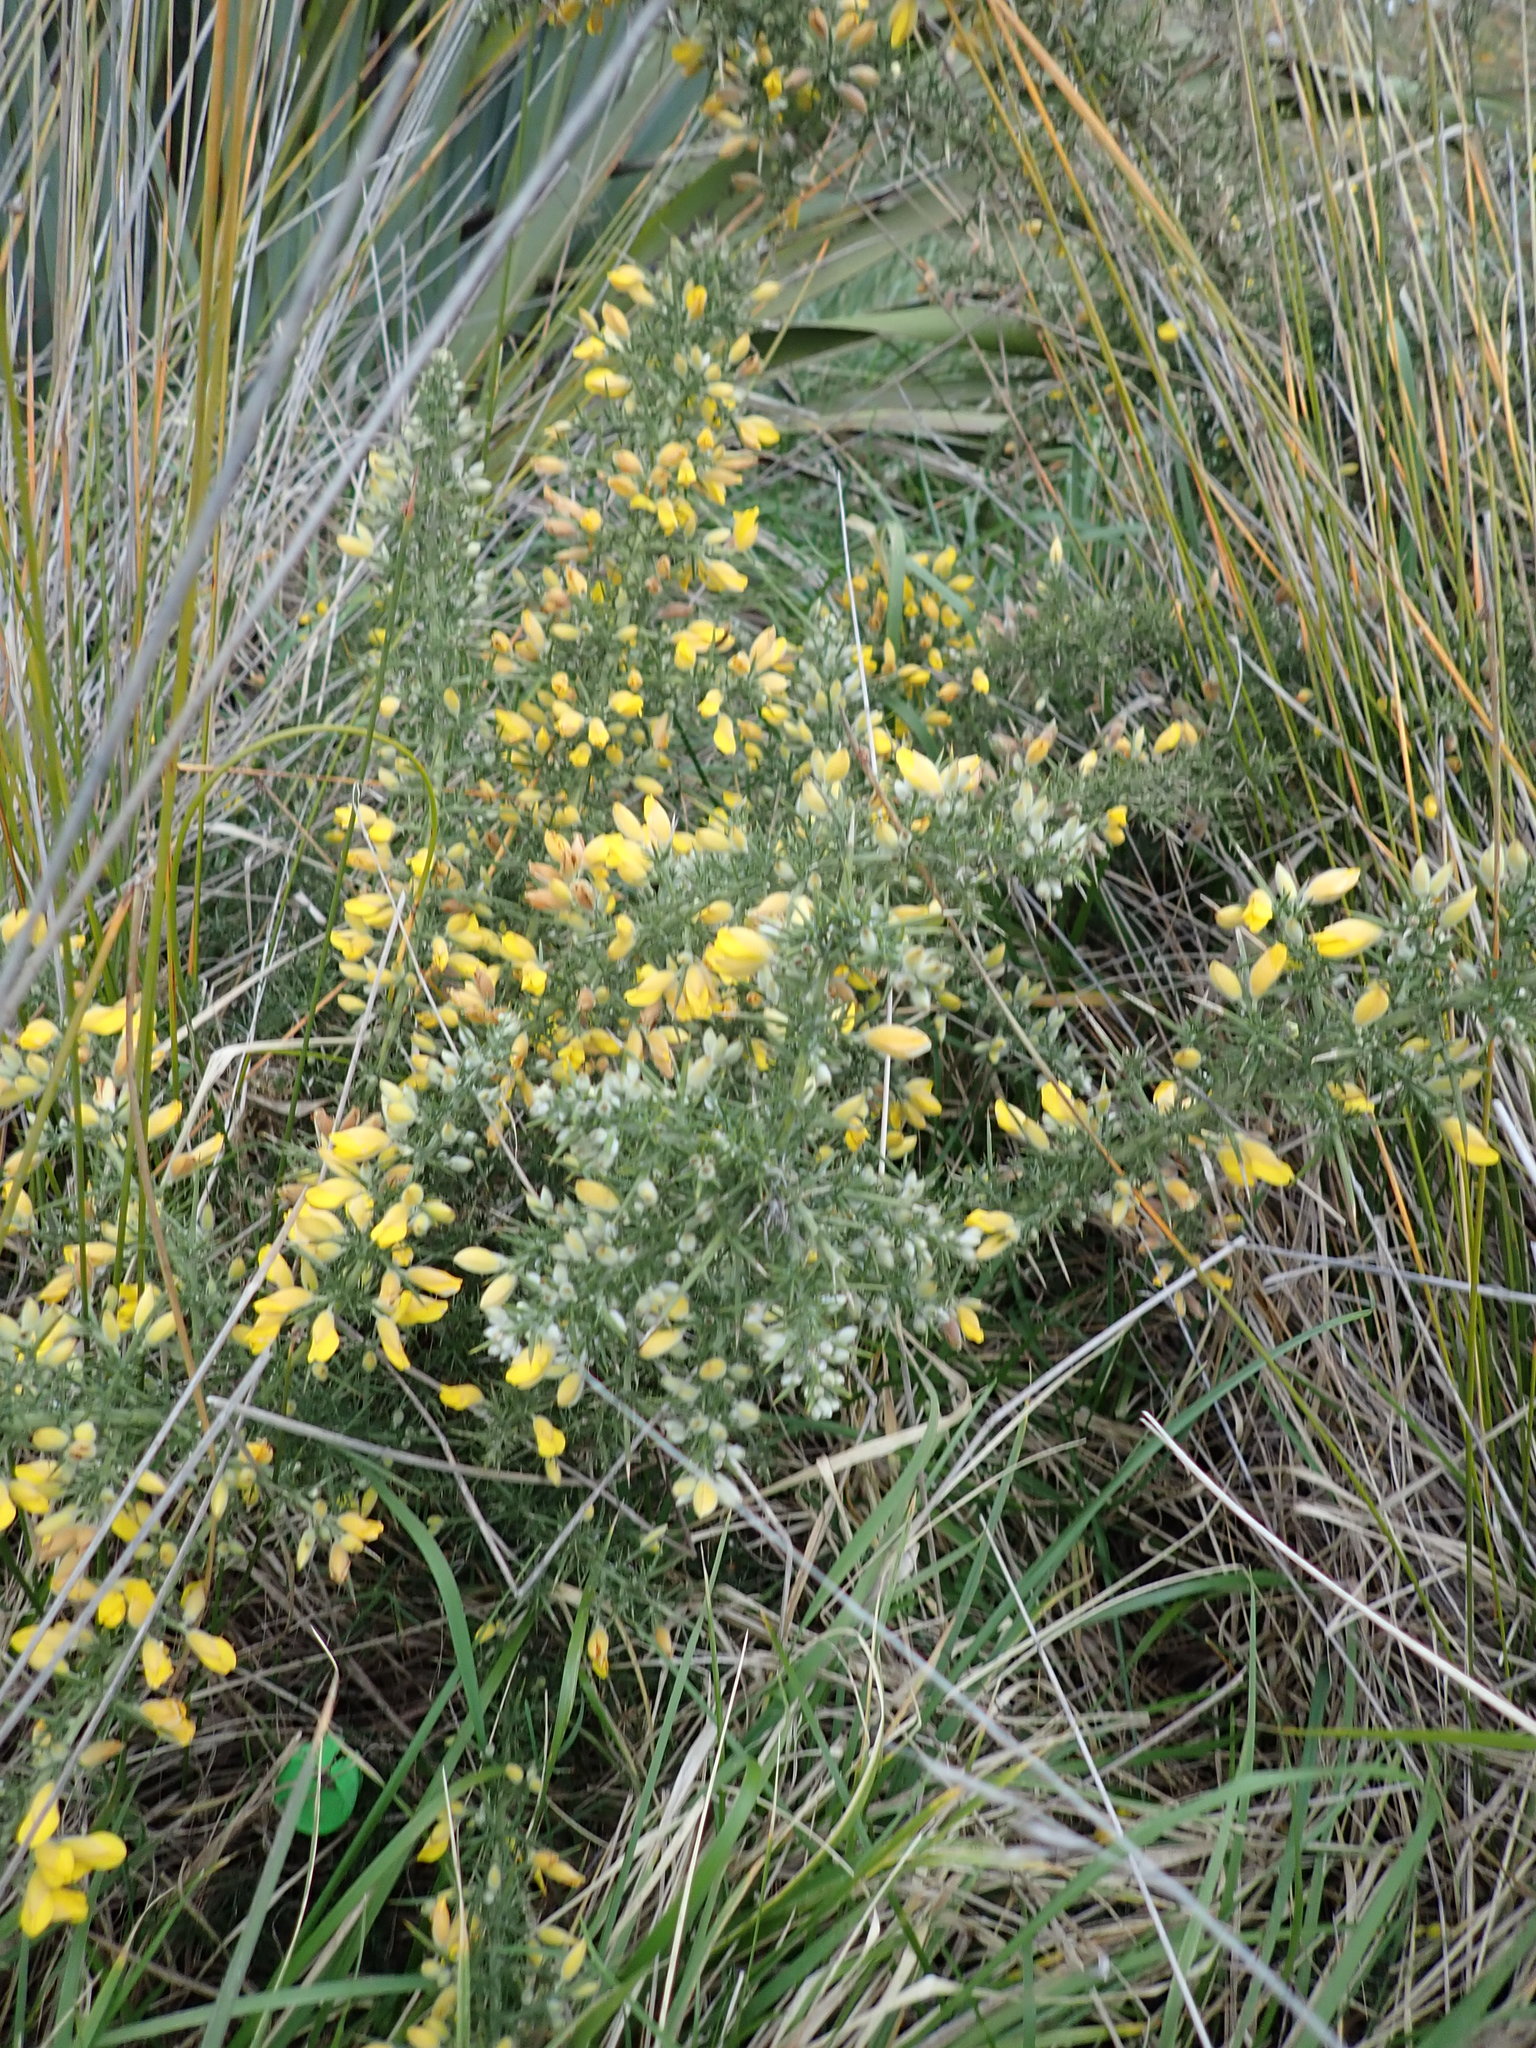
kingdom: Plantae
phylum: Tracheophyta
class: Magnoliopsida
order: Fabales
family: Fabaceae
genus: Ulex
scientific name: Ulex europaeus
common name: Common gorse
